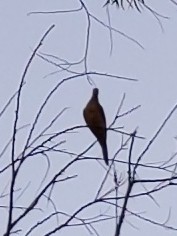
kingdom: Animalia
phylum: Chordata
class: Aves
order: Columbiformes
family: Columbidae
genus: Zenaida
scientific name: Zenaida macroura
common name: Mourning dove
